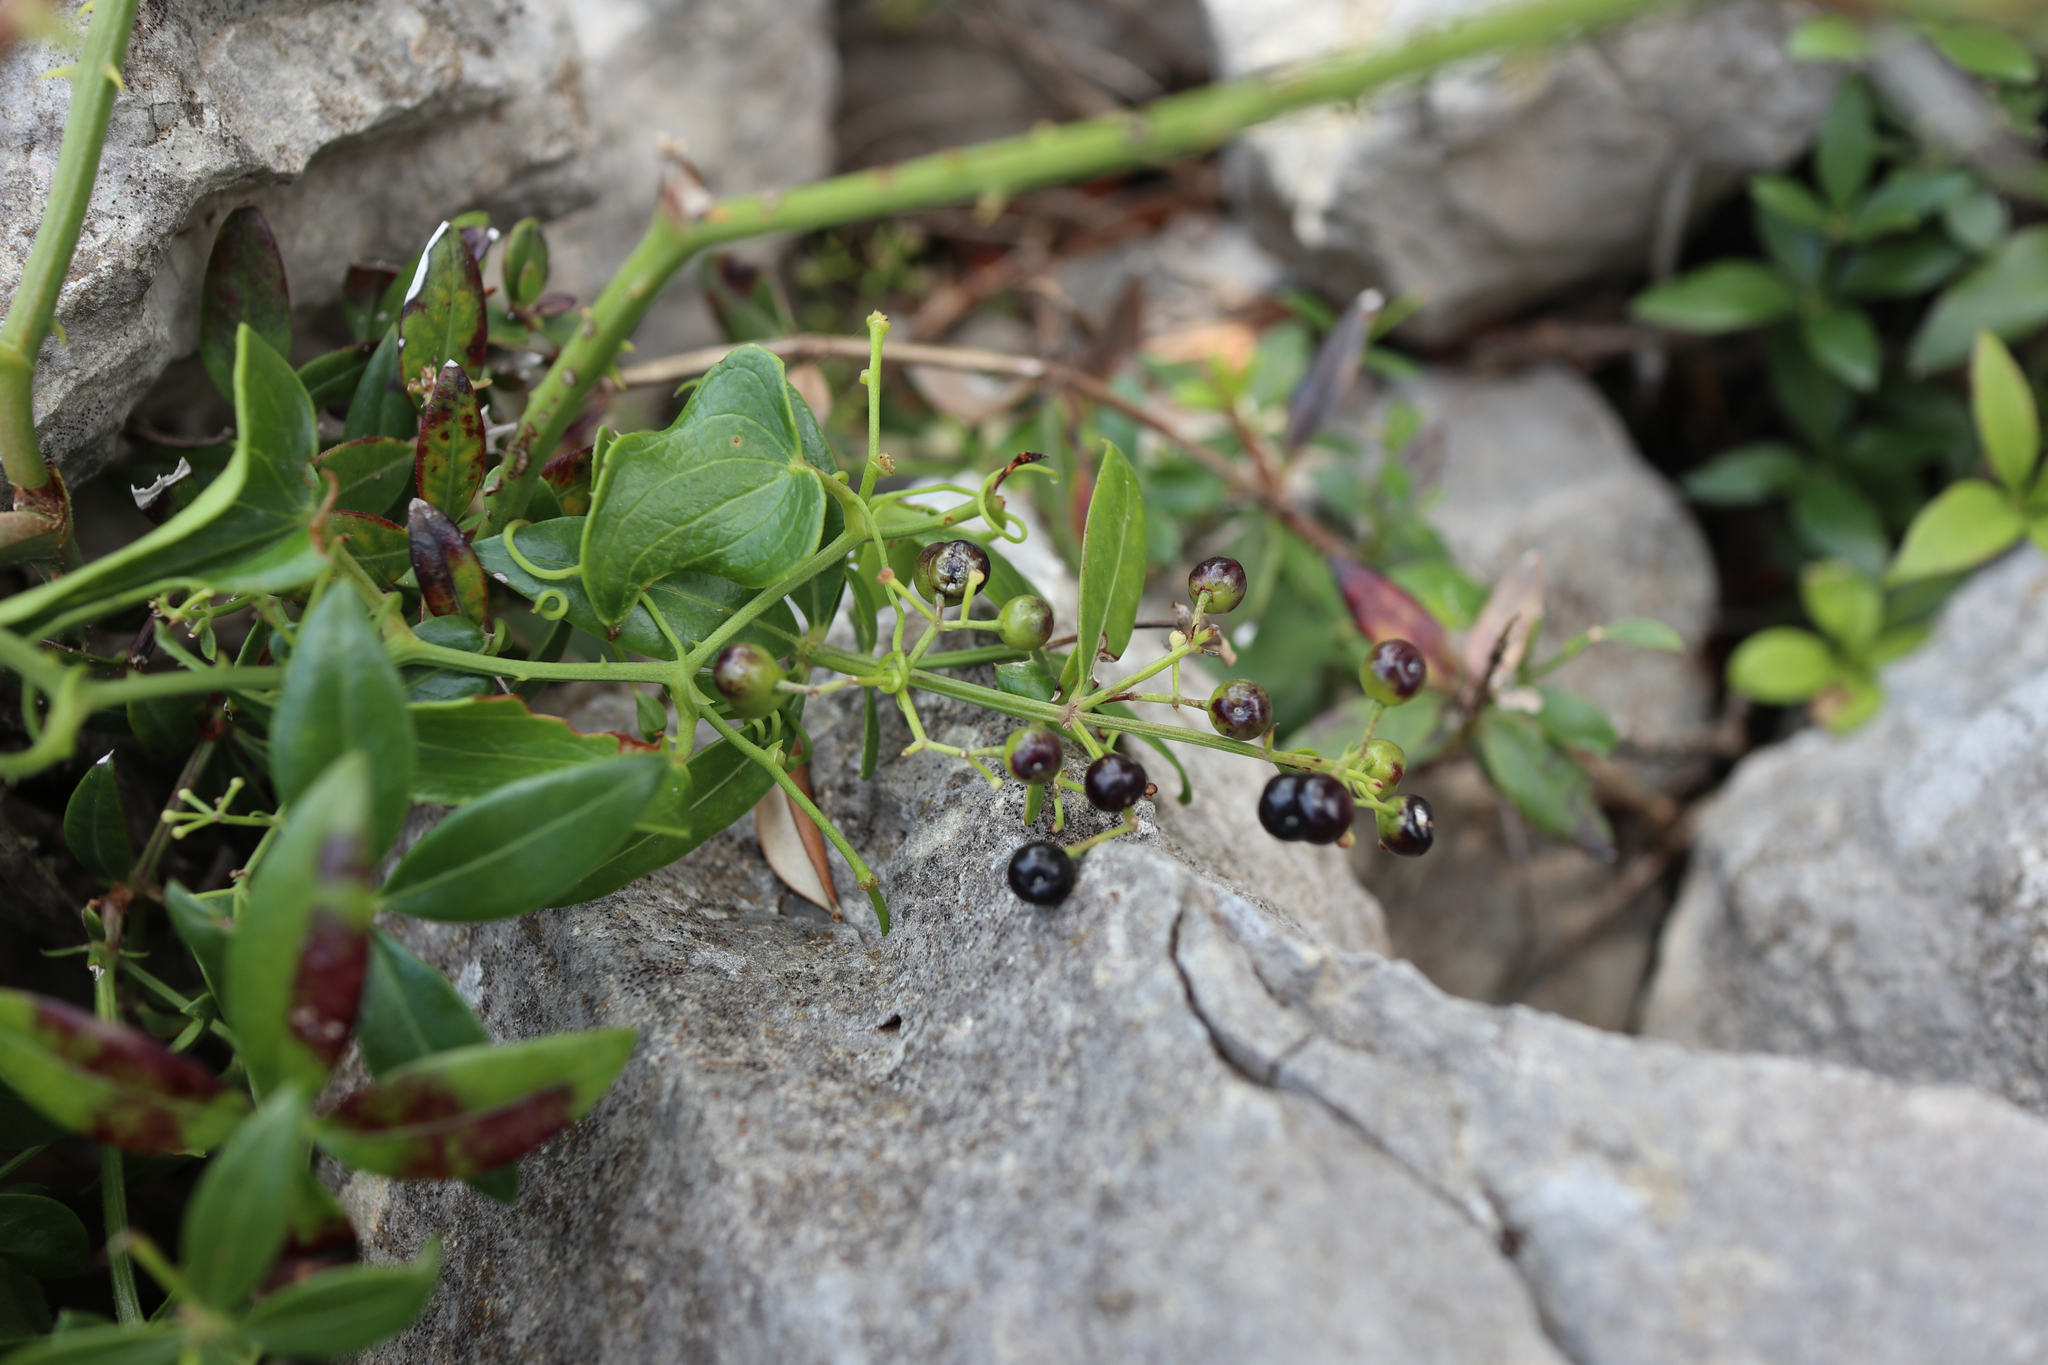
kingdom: Plantae
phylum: Tracheophyta
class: Magnoliopsida
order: Gentianales
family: Rubiaceae
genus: Rubia
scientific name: Rubia peregrina
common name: Wild madder
